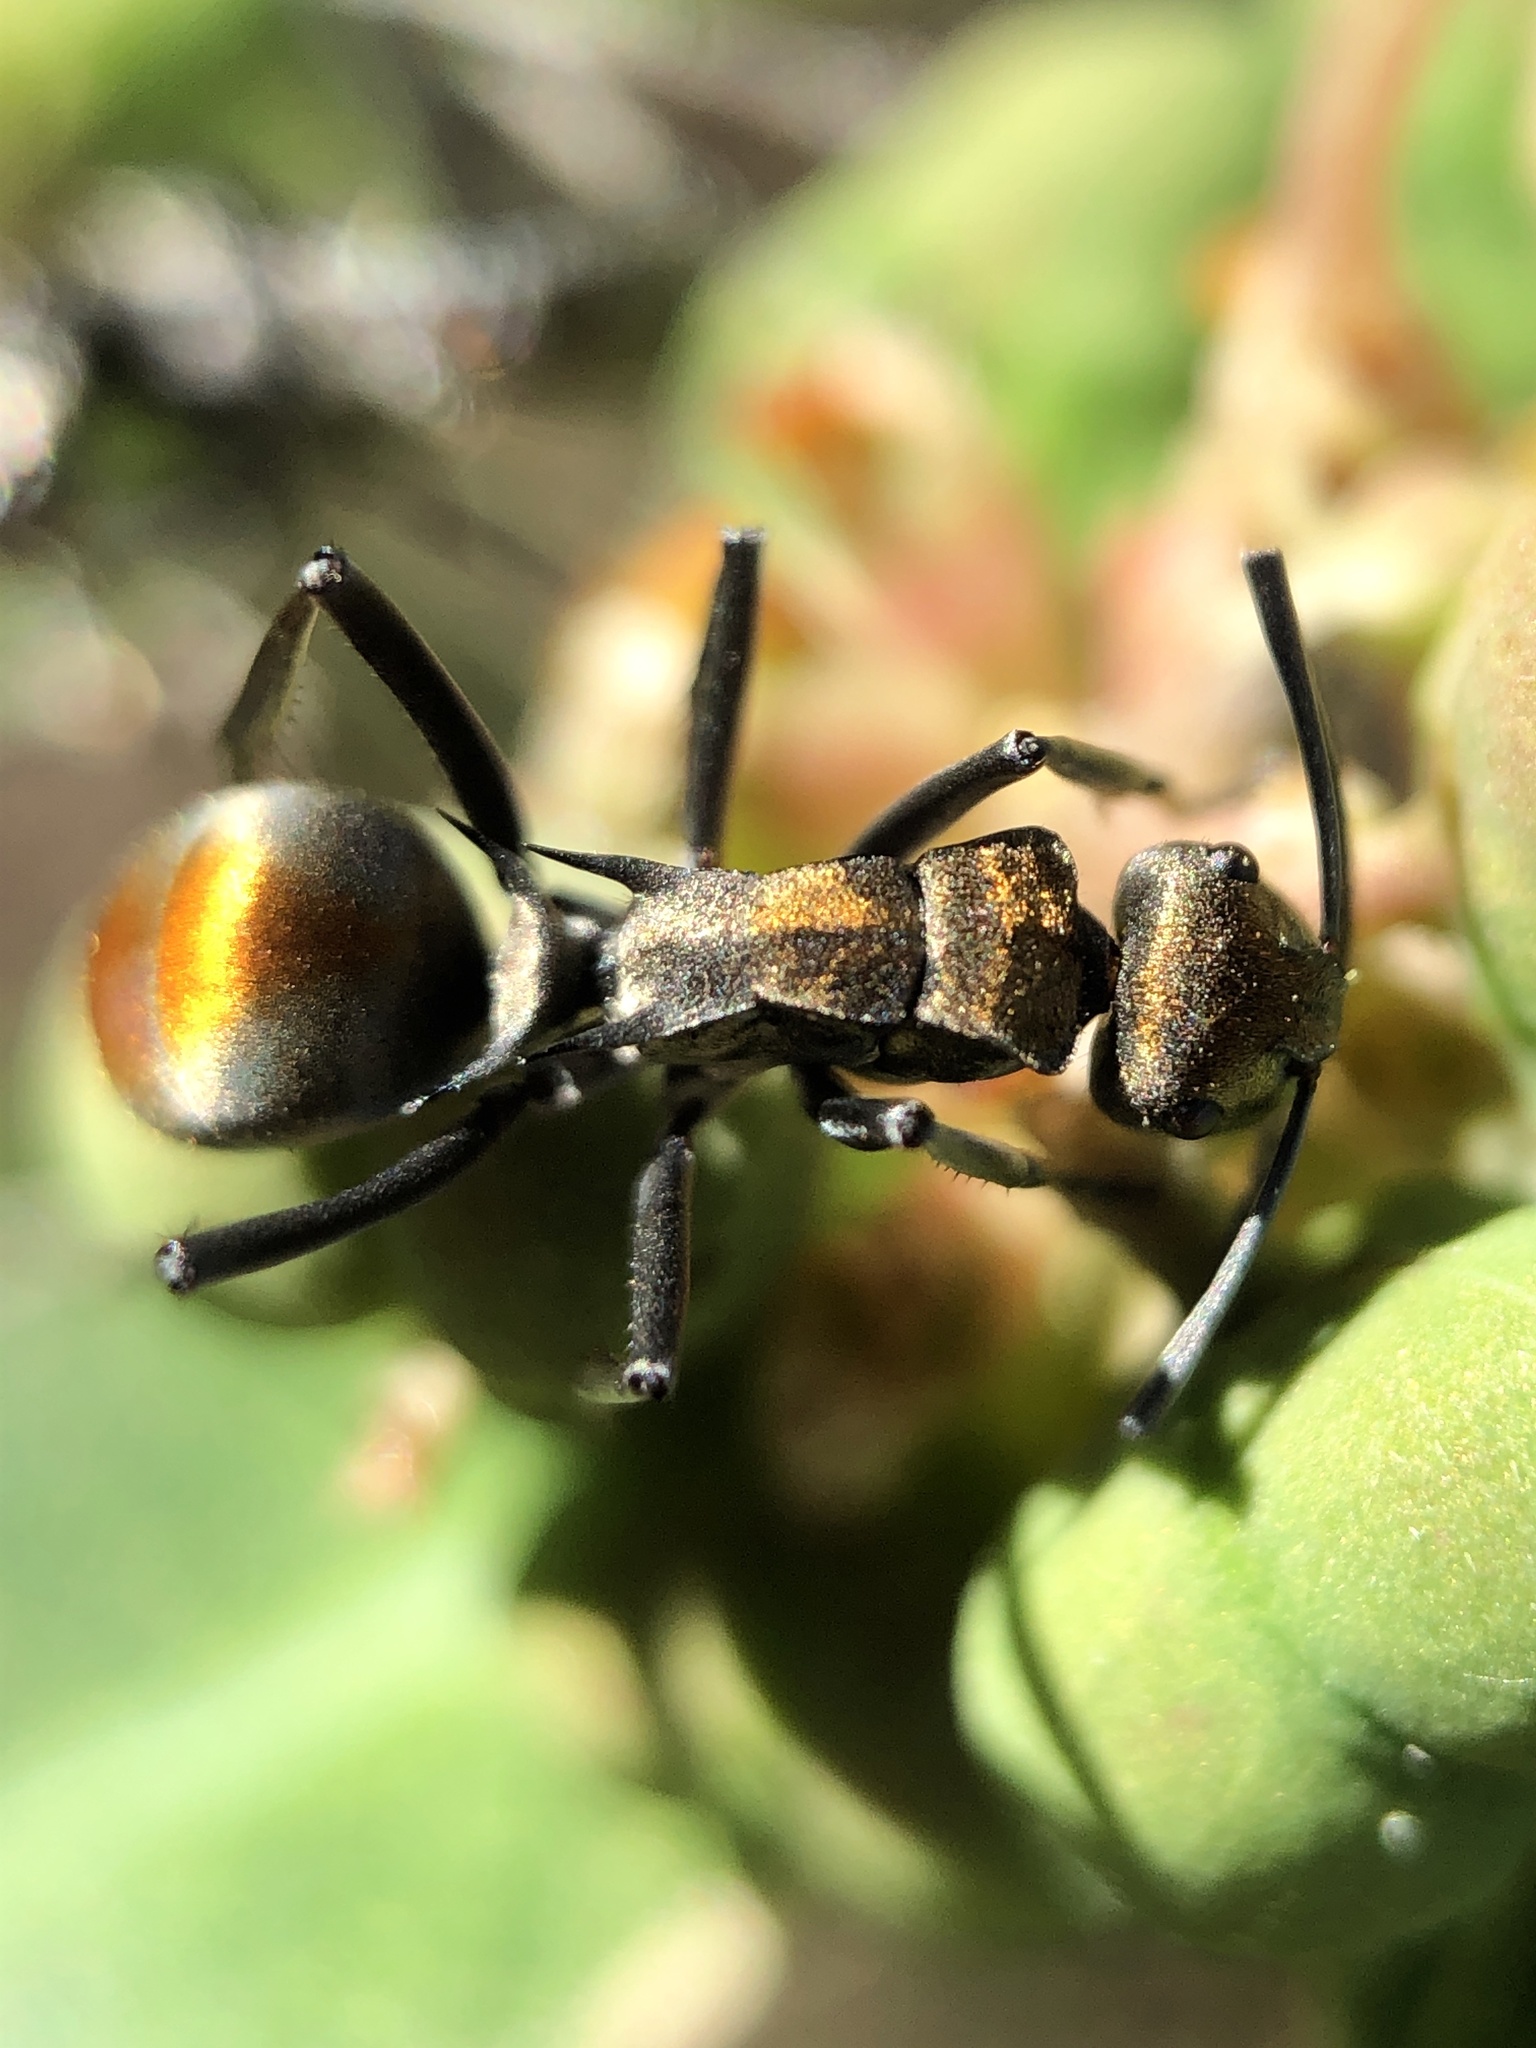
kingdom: Animalia
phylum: Arthropoda
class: Insecta
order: Hymenoptera
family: Formicidae
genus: Polyrhachis
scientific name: Polyrhachis trapezoidea
